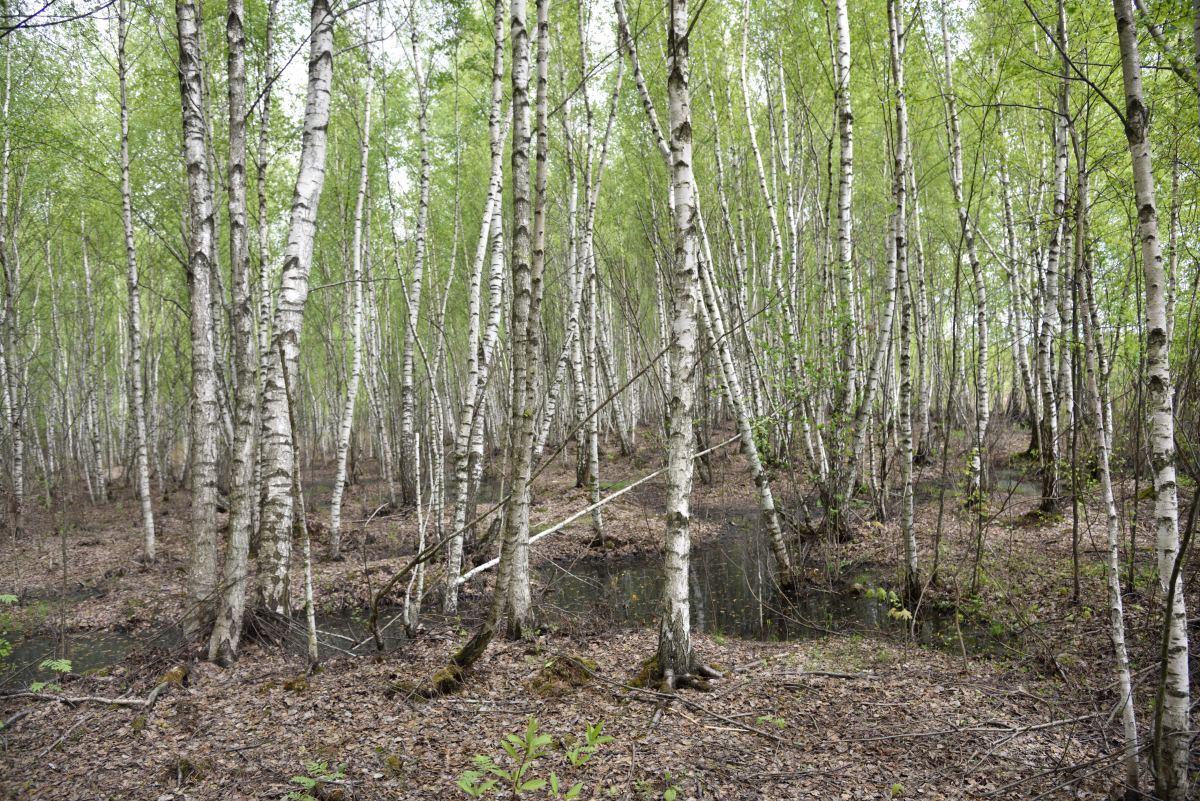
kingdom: Plantae
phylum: Tracheophyta
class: Magnoliopsida
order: Fagales
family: Betulaceae
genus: Betula
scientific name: Betula pubescens
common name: Downy birch
